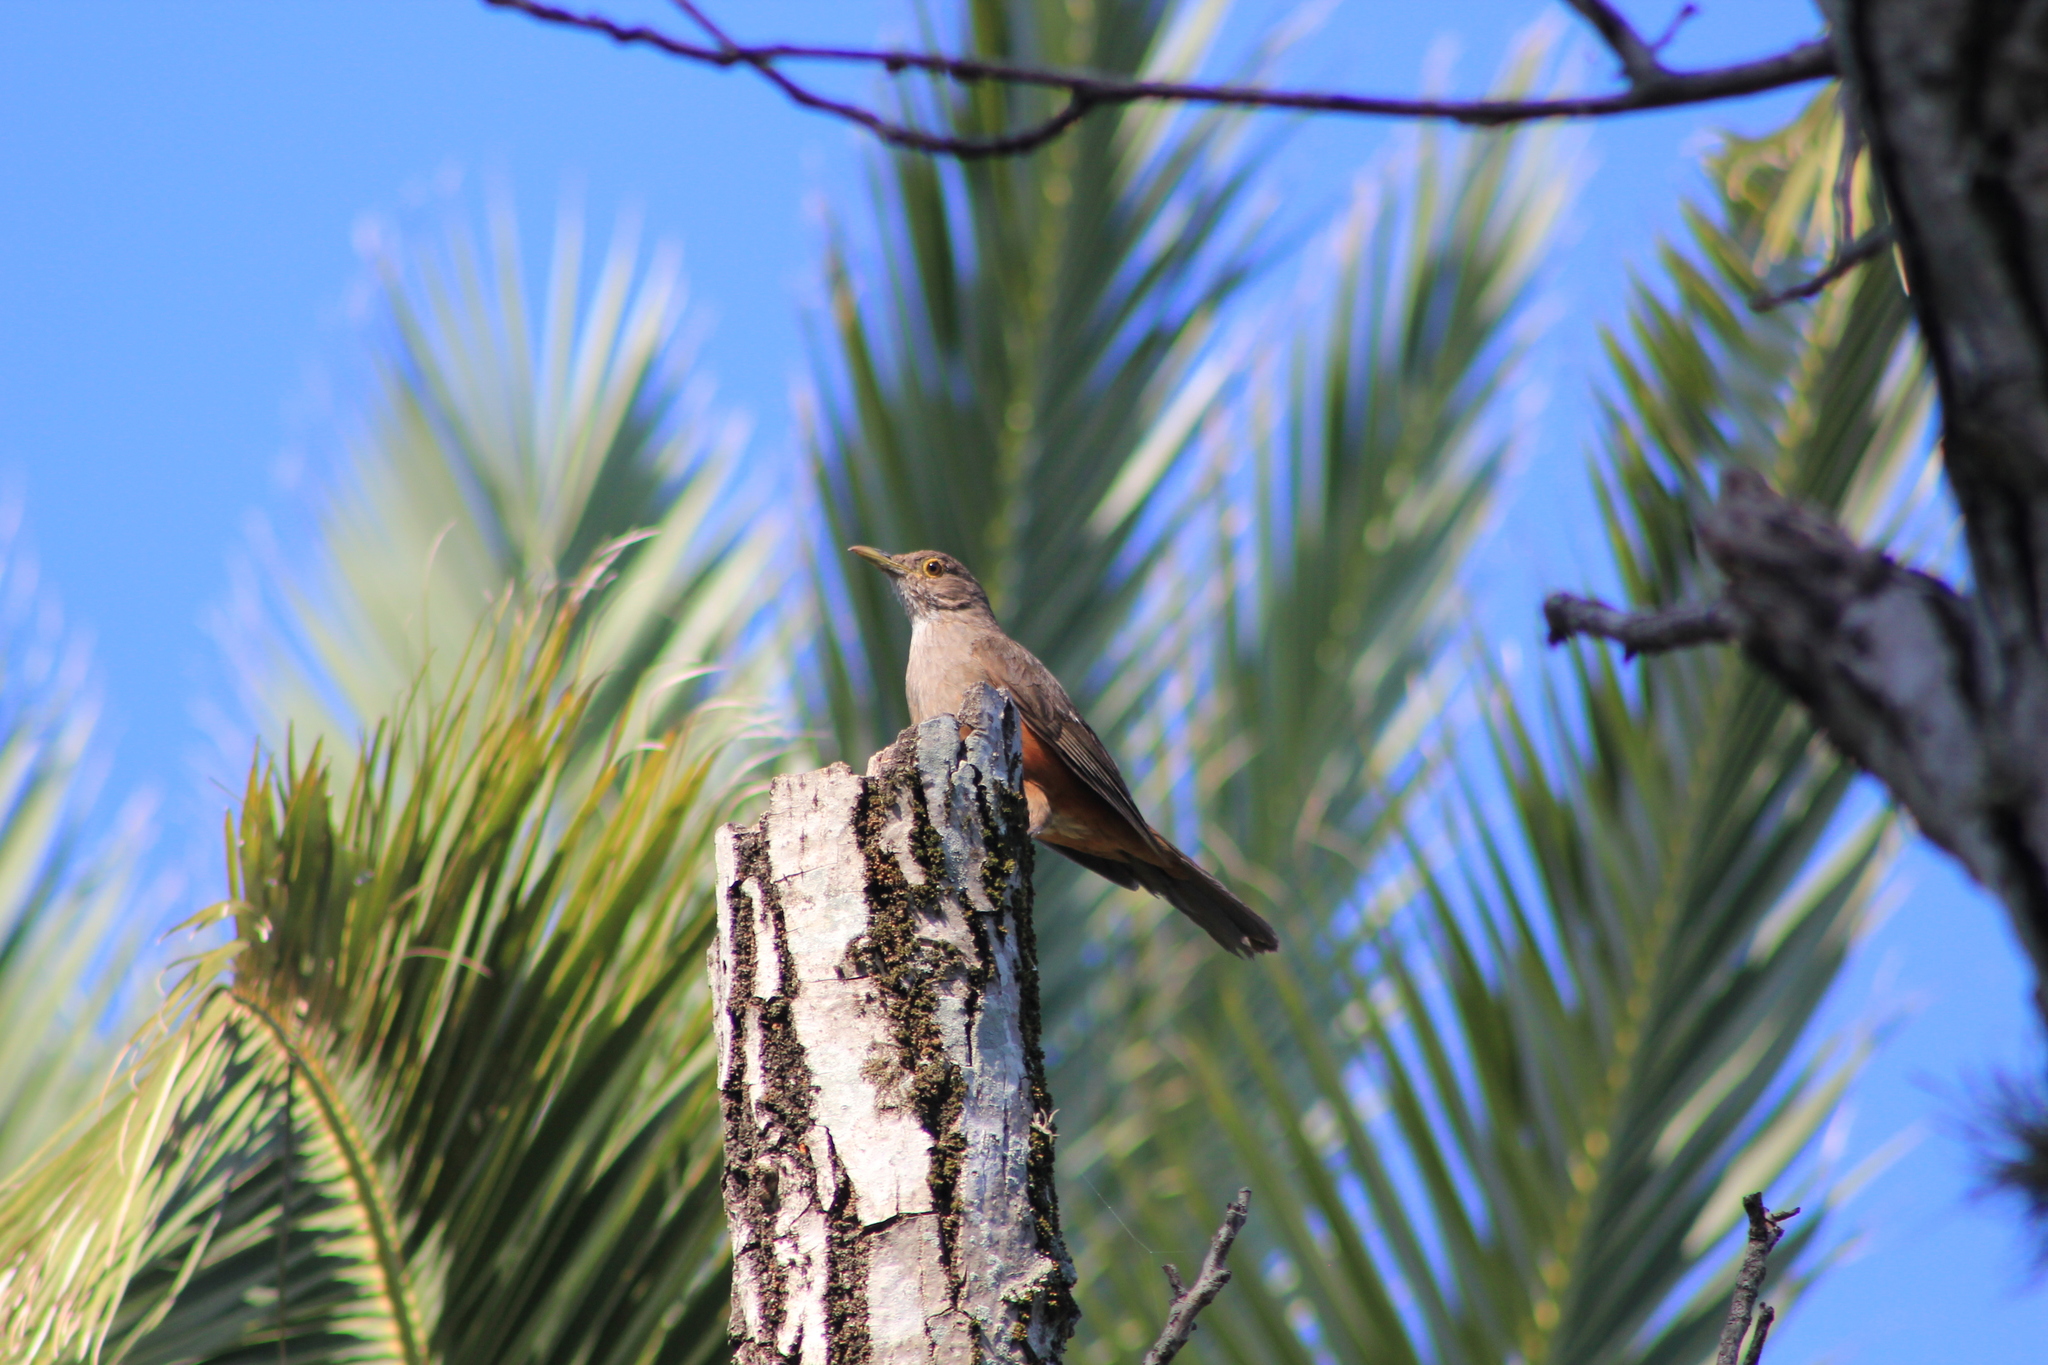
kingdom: Animalia
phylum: Chordata
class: Aves
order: Passeriformes
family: Turdidae
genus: Turdus
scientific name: Turdus rufiventris
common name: Rufous-bellied thrush
